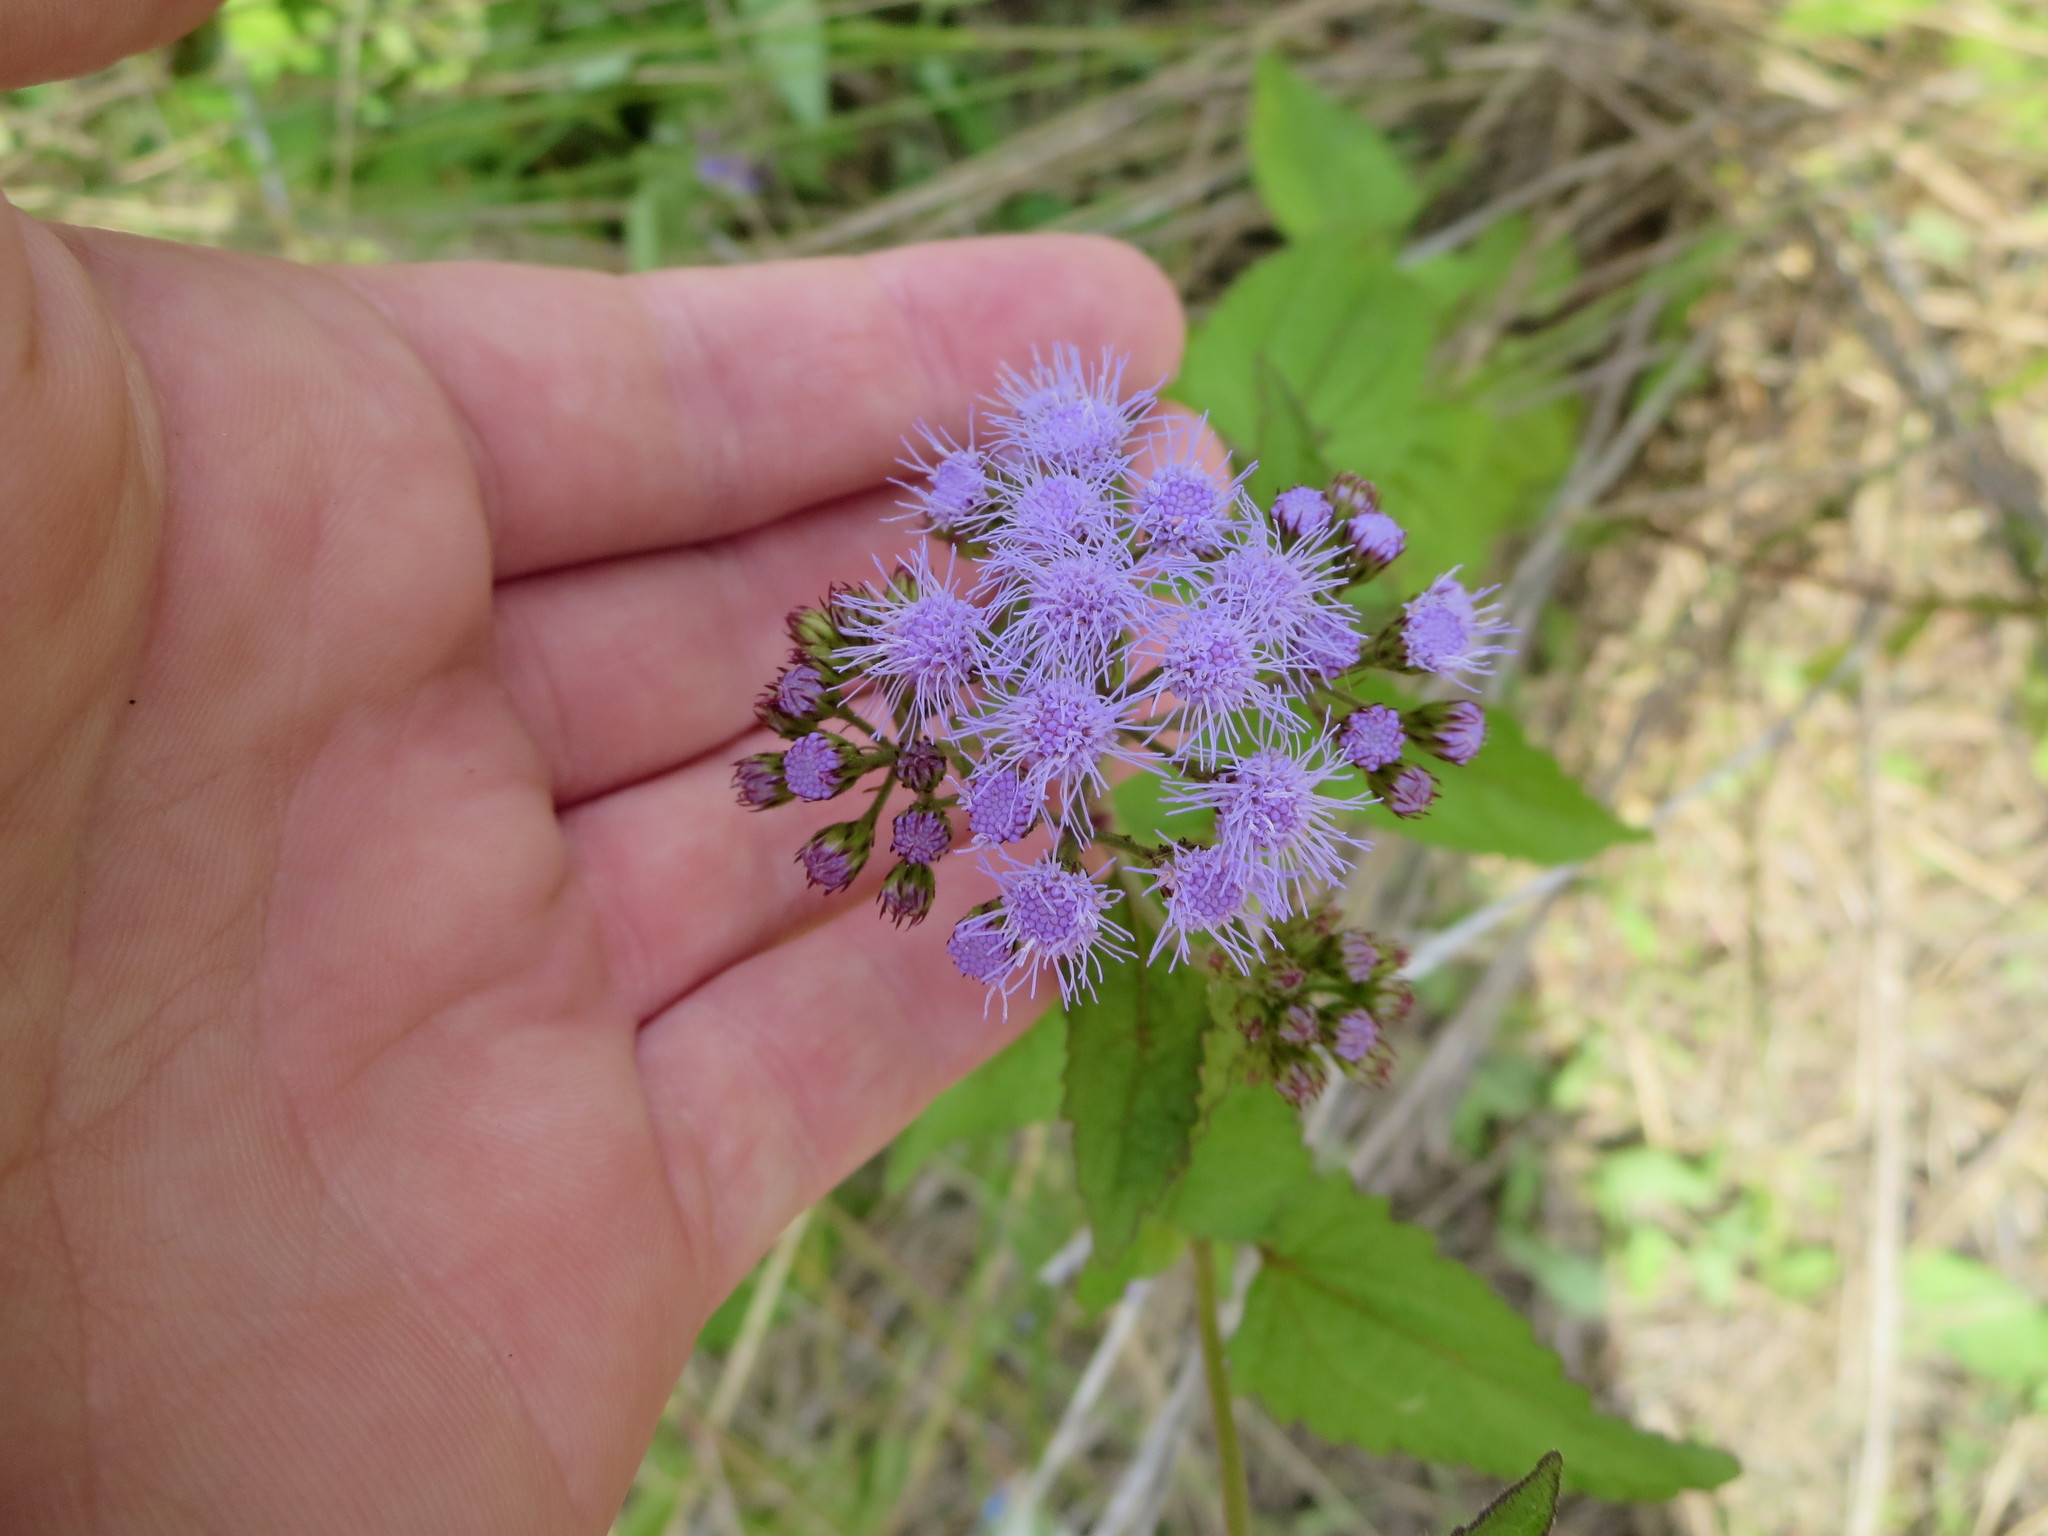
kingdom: Plantae
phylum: Tracheophyta
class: Magnoliopsida
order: Asterales
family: Asteraceae
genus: Conoclinium
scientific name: Conoclinium coelestinum
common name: Blue mistflower
